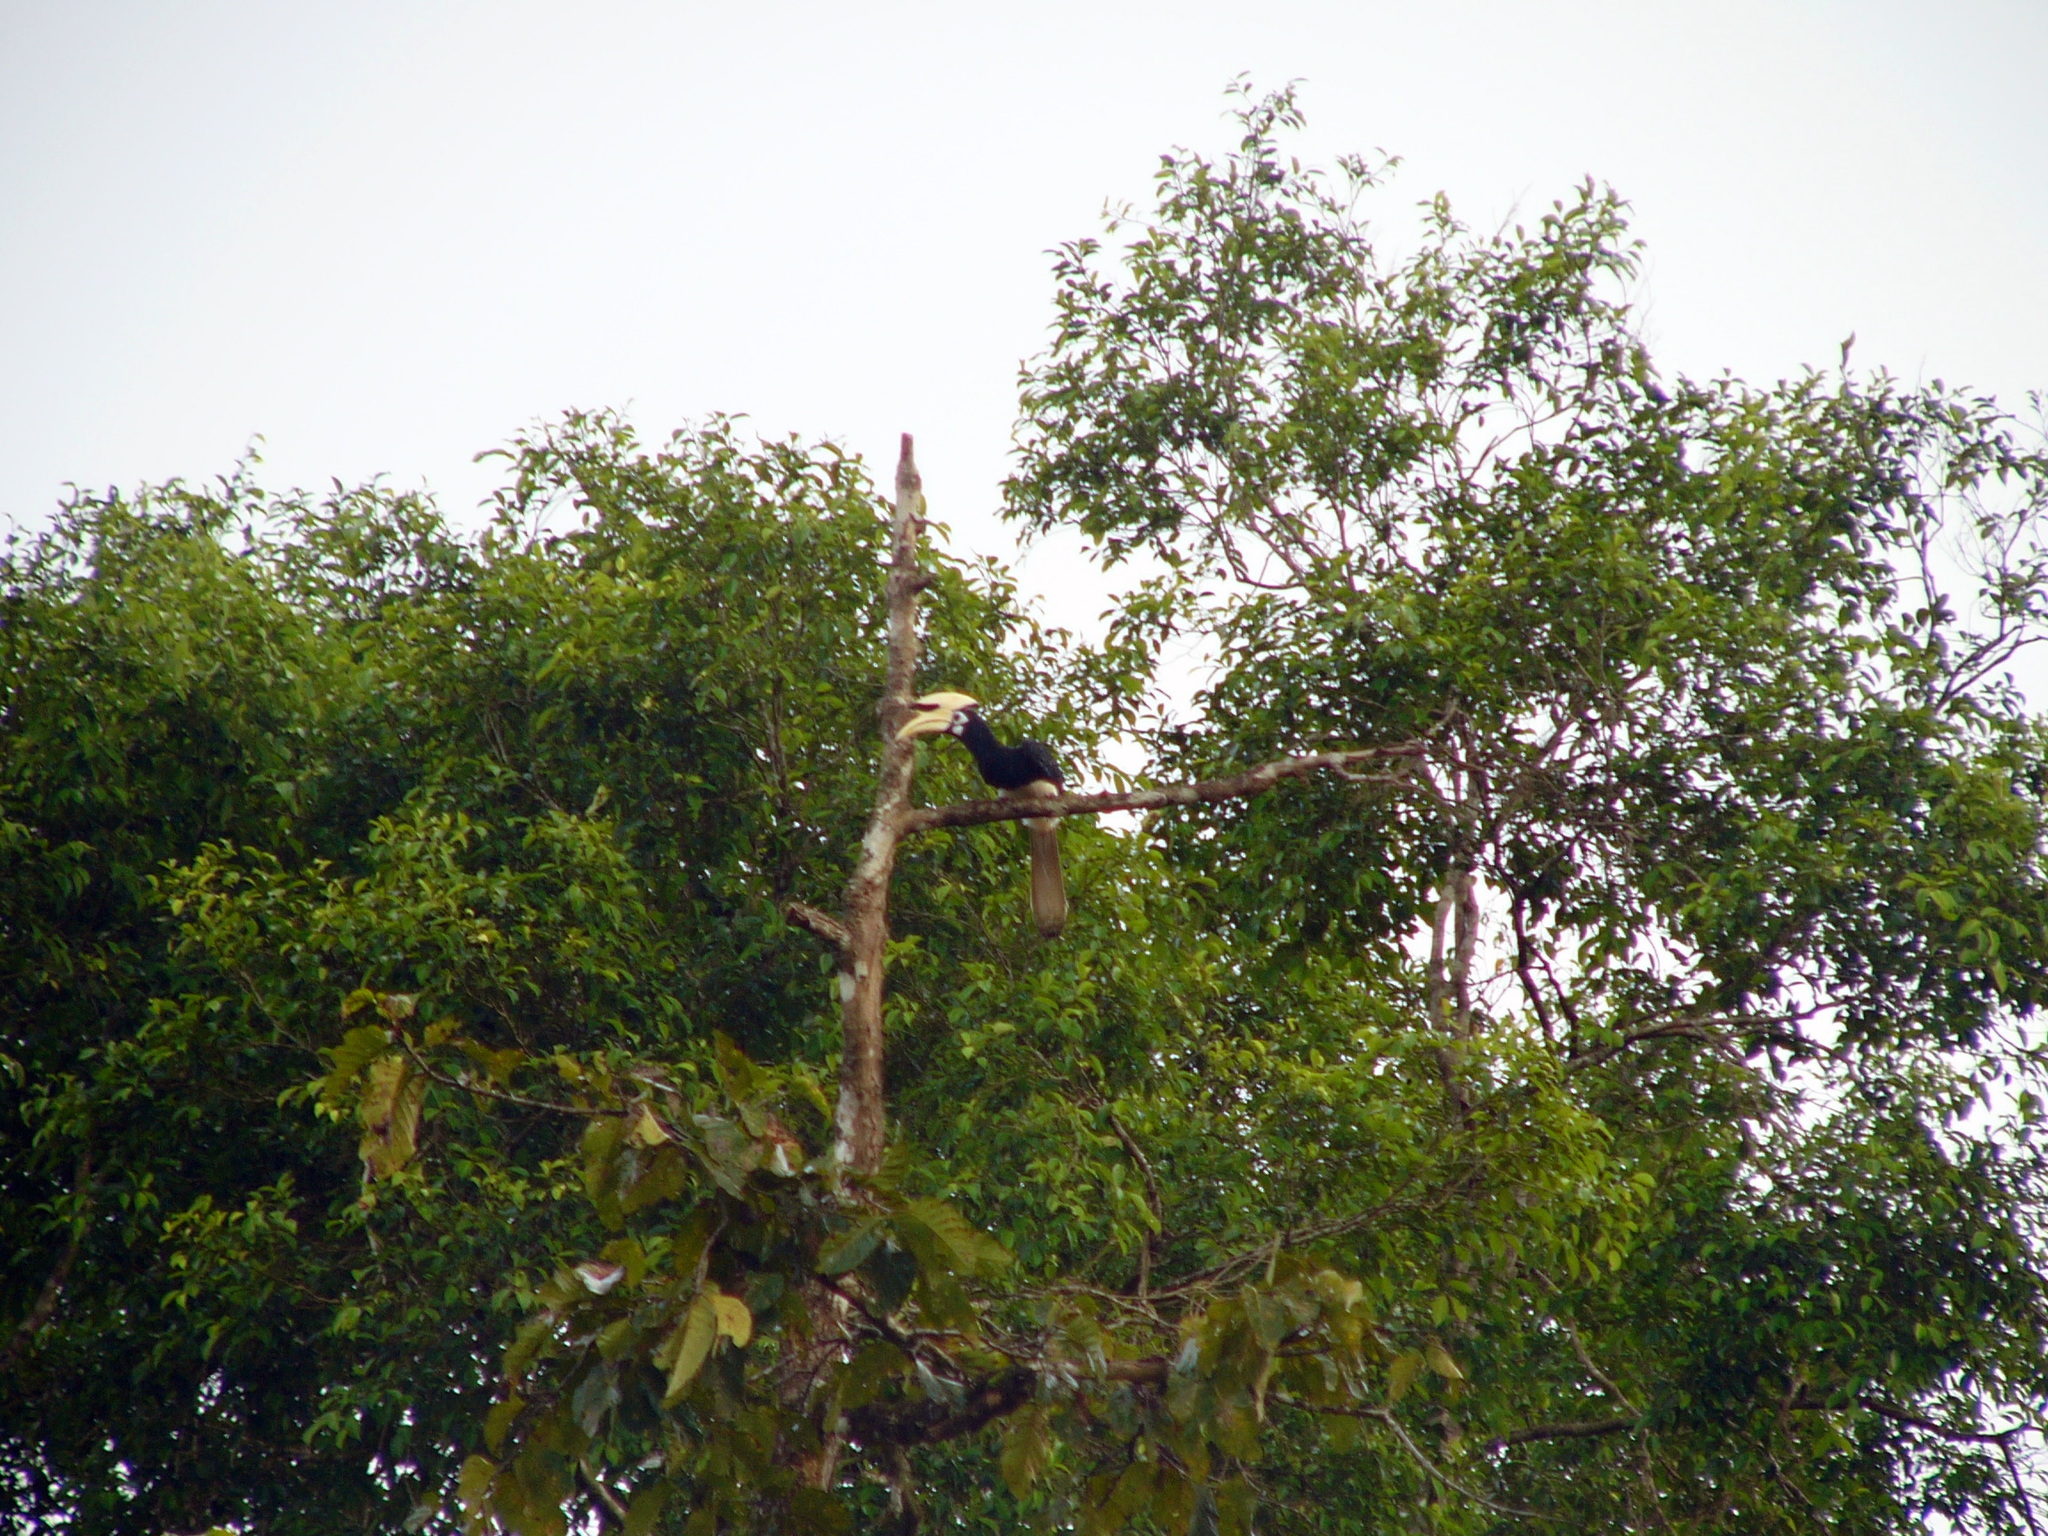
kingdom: Animalia
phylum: Chordata
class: Aves
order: Bucerotiformes
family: Bucerotidae
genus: Anthracoceros
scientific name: Anthracoceros albirostris
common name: Oriental pied-hornbill
